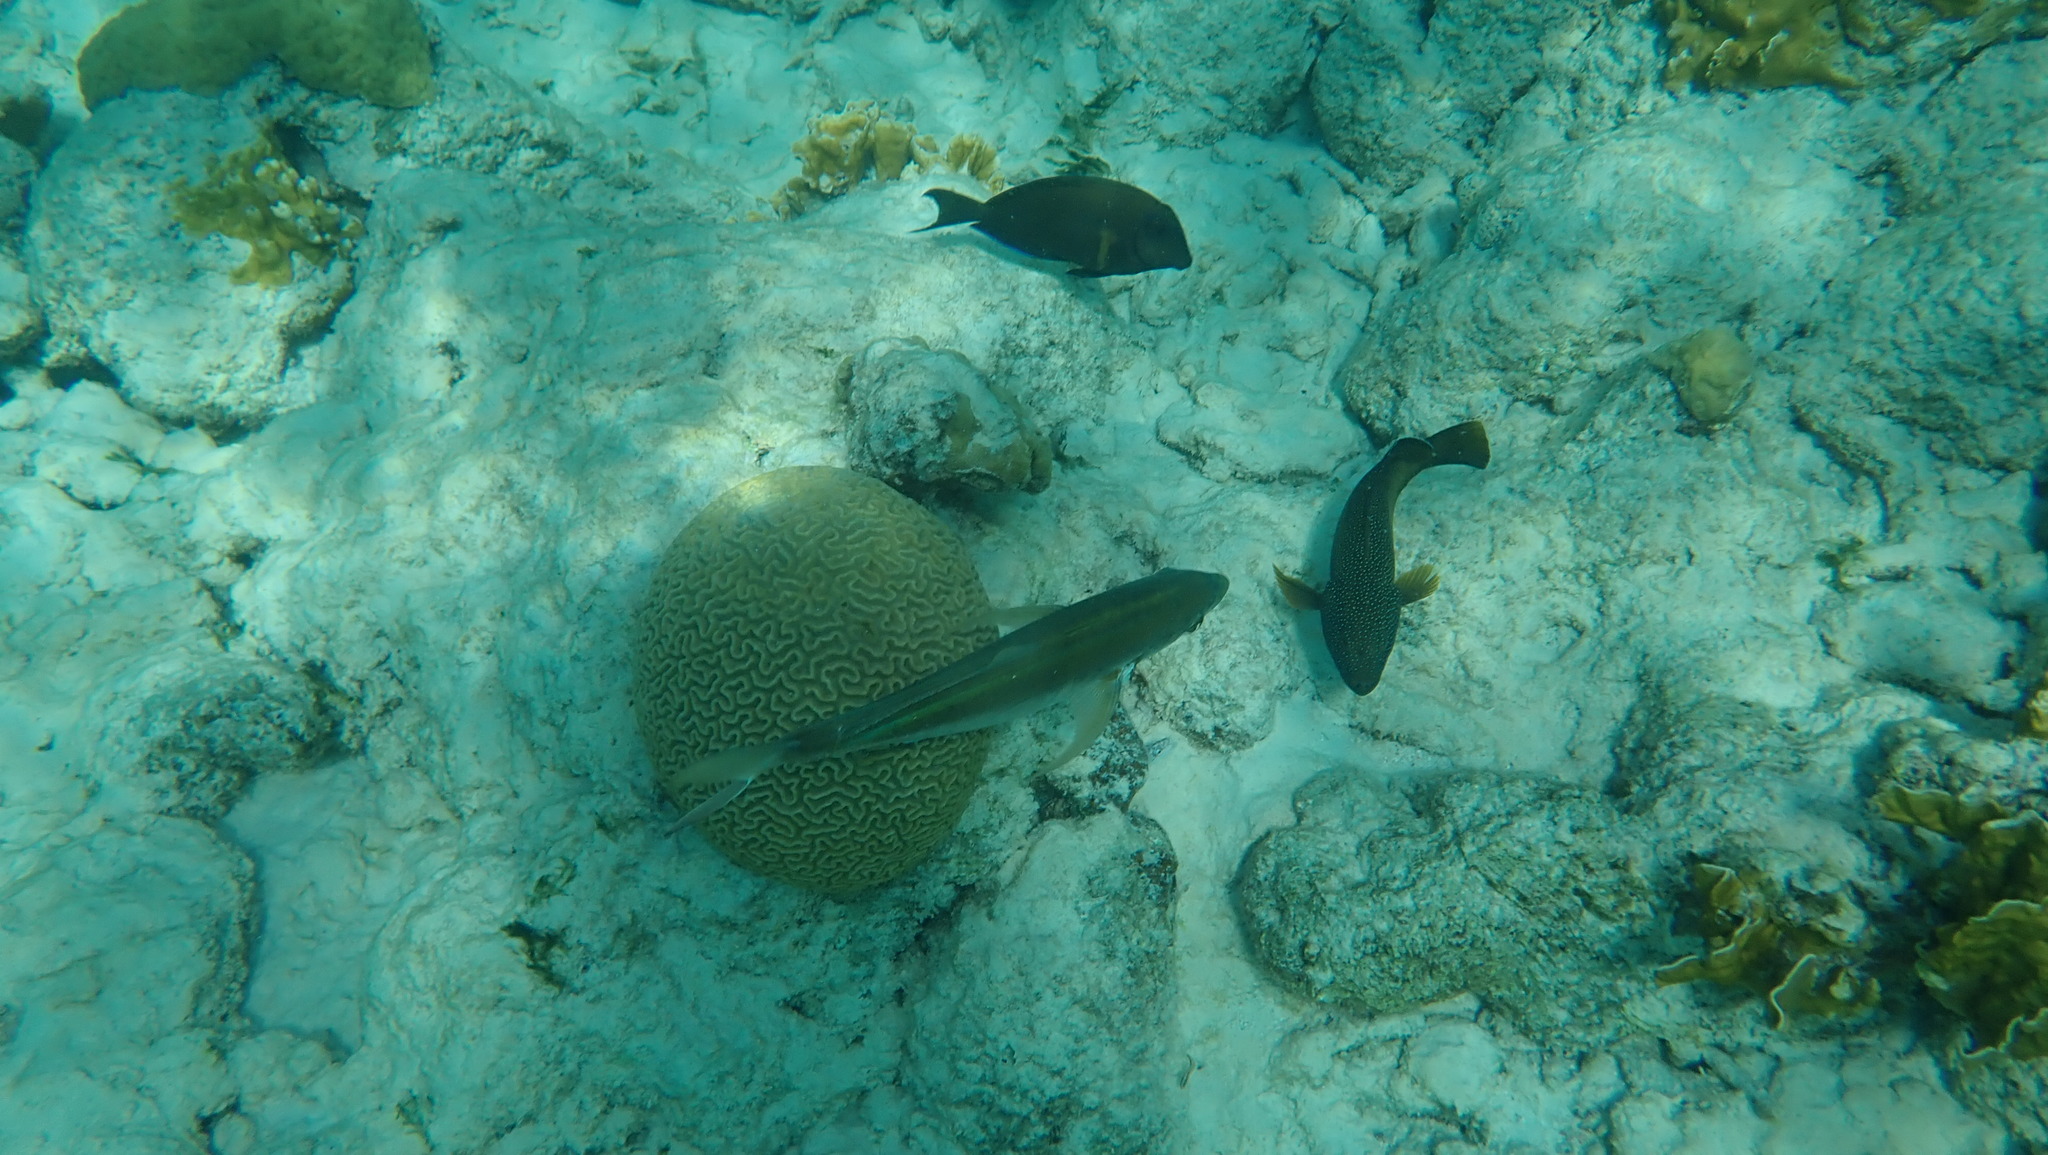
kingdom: Animalia
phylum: Chordata
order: Perciformes
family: Serranidae
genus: Cephalopholis
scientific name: Cephalopholis fulva
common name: Butterfish
